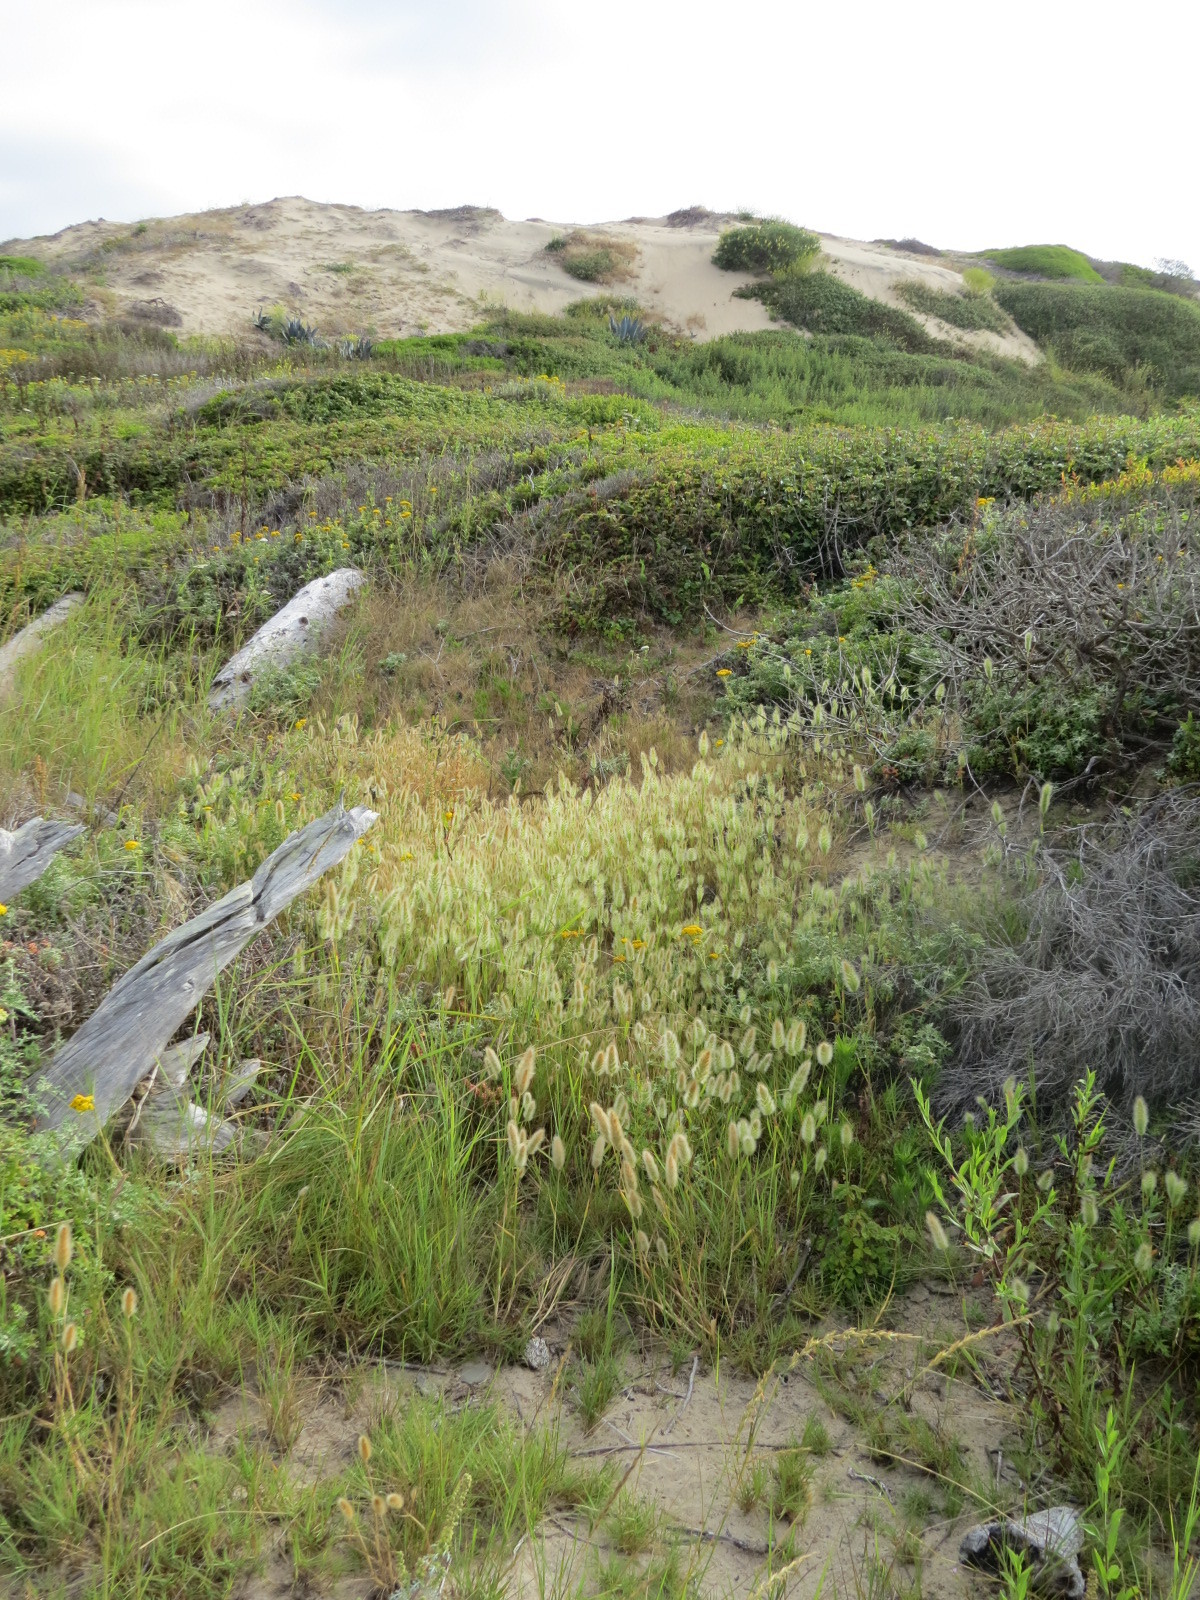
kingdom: Plantae
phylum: Tracheophyta
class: Liliopsida
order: Poales
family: Poaceae
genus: Polypogon
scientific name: Polypogon monspeliensis
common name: Annual rabbitsfoot grass
